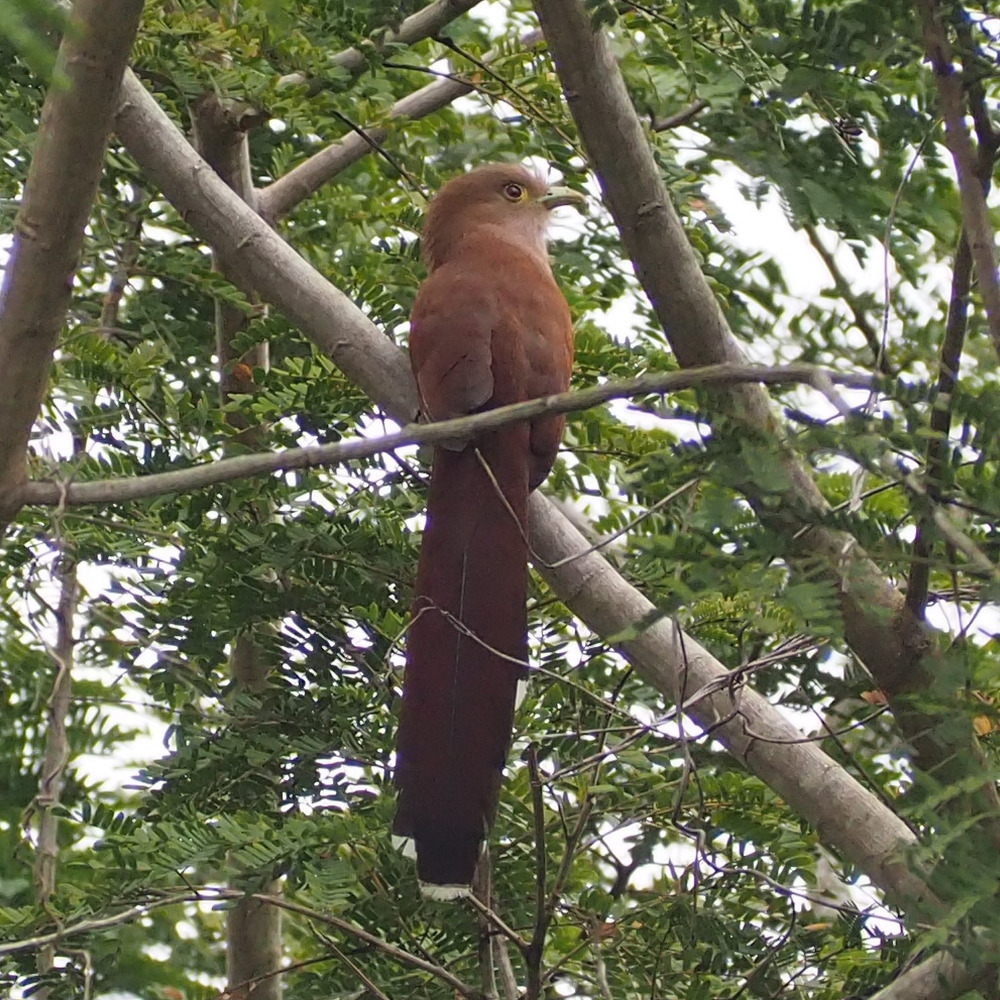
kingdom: Animalia
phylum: Chordata
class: Aves
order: Cuculiformes
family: Cuculidae
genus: Piaya
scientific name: Piaya cayana
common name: Squirrel cuckoo
